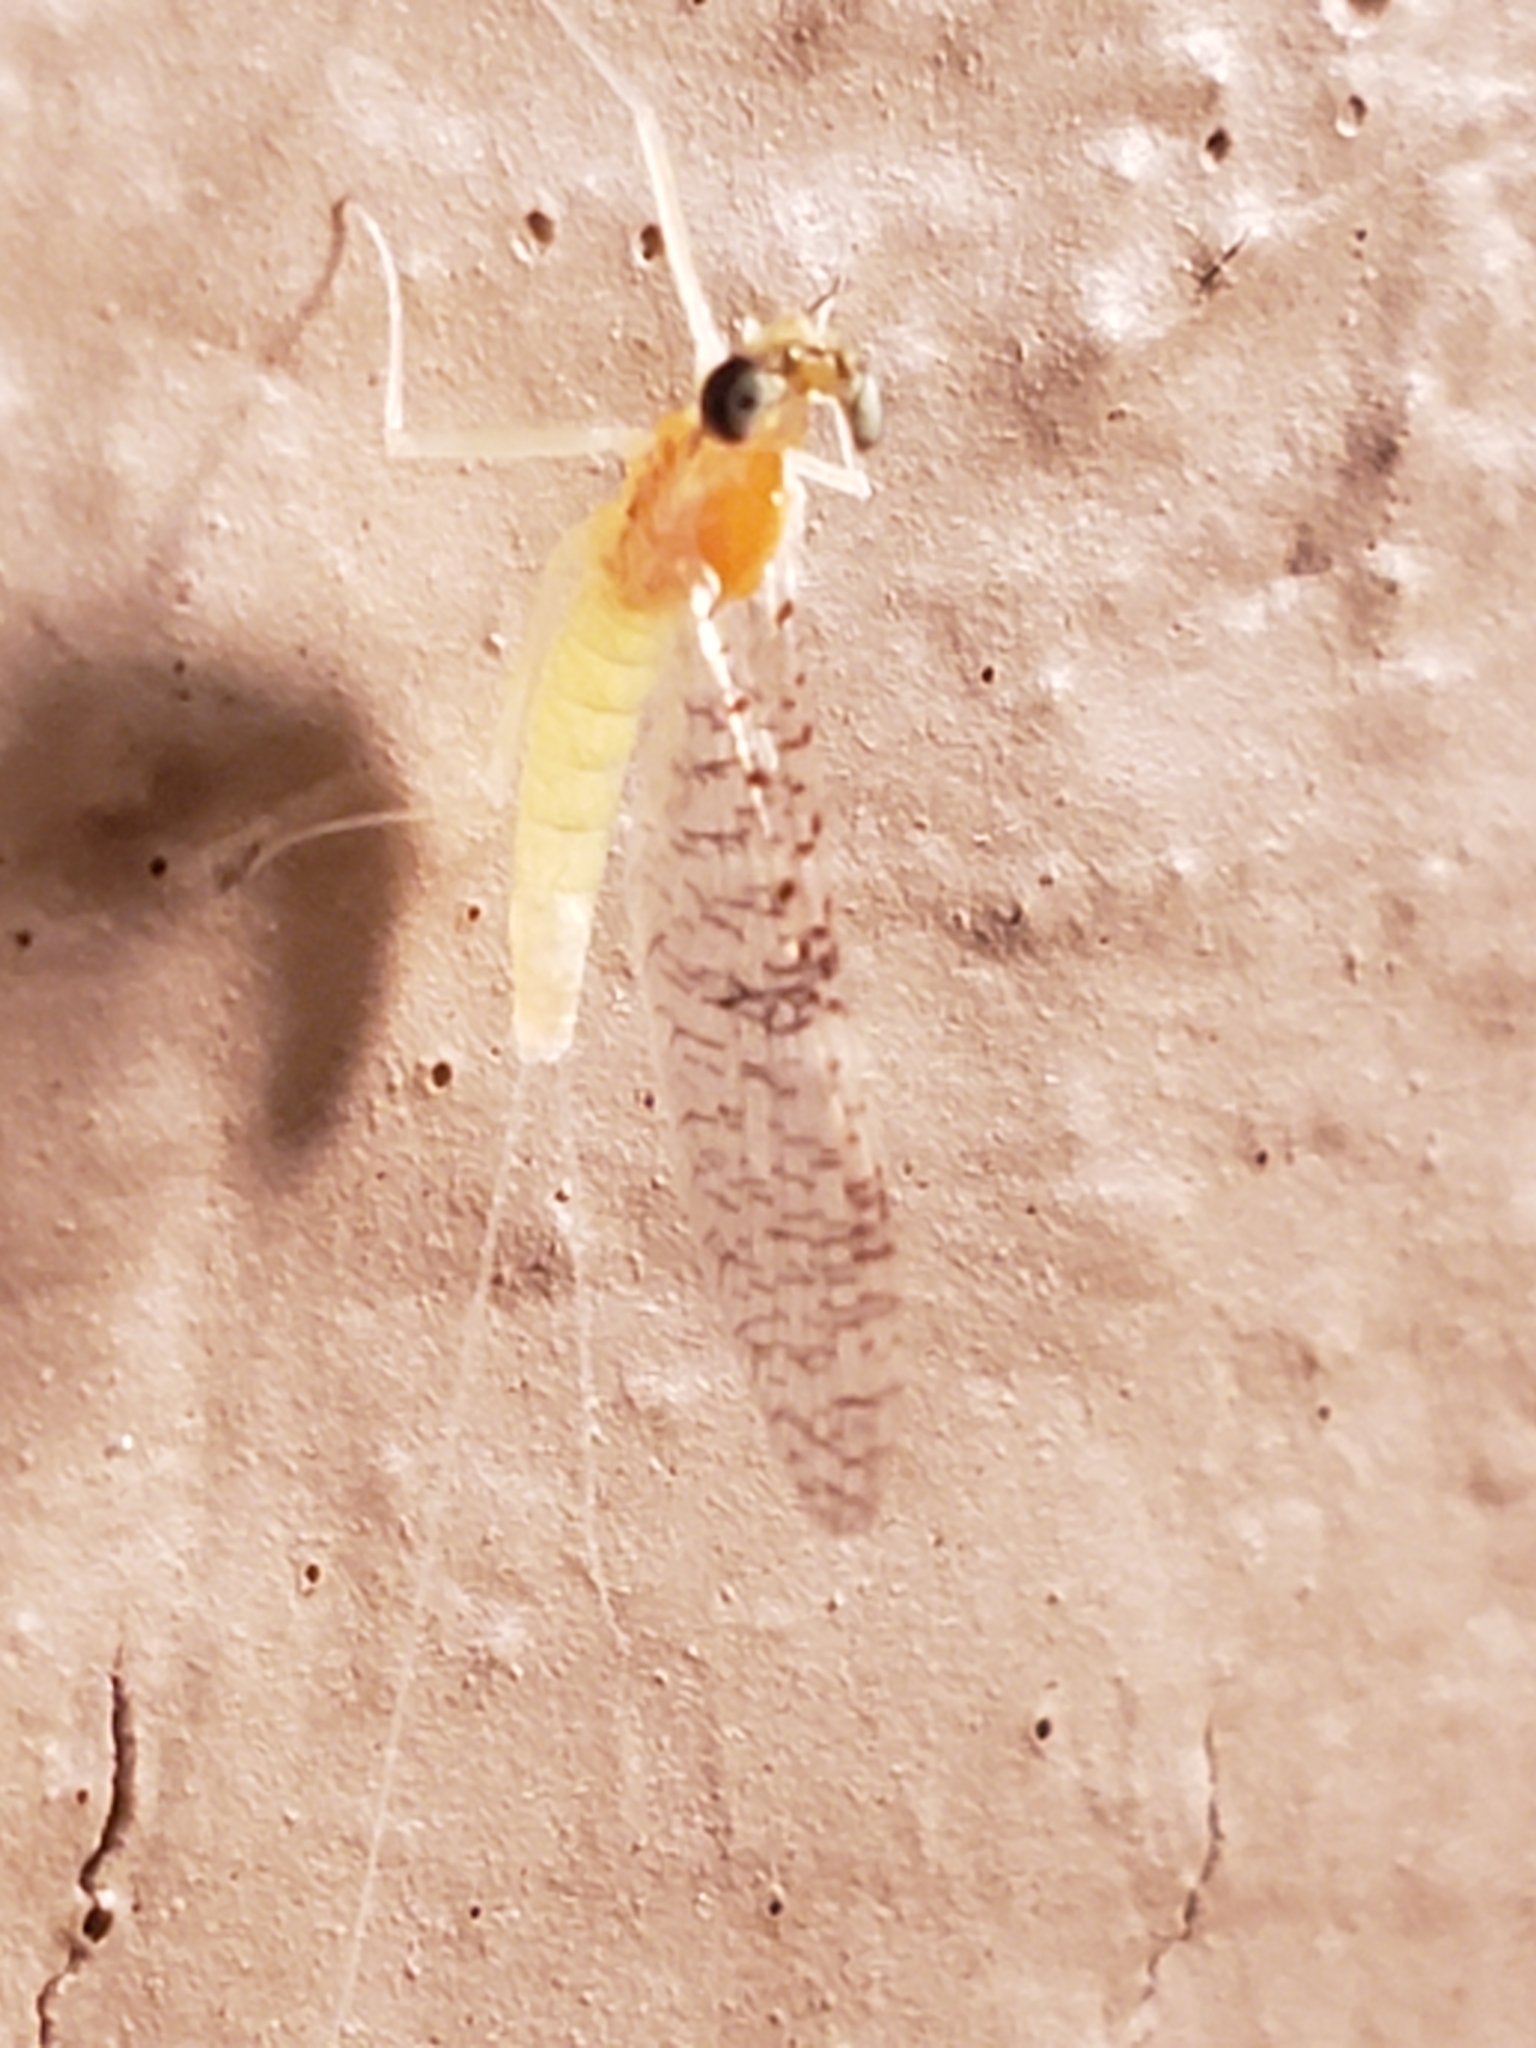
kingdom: Animalia
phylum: Arthropoda
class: Insecta
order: Ephemeroptera
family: Heptageniidae
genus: Leucrocuta
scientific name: Leucrocuta juno
